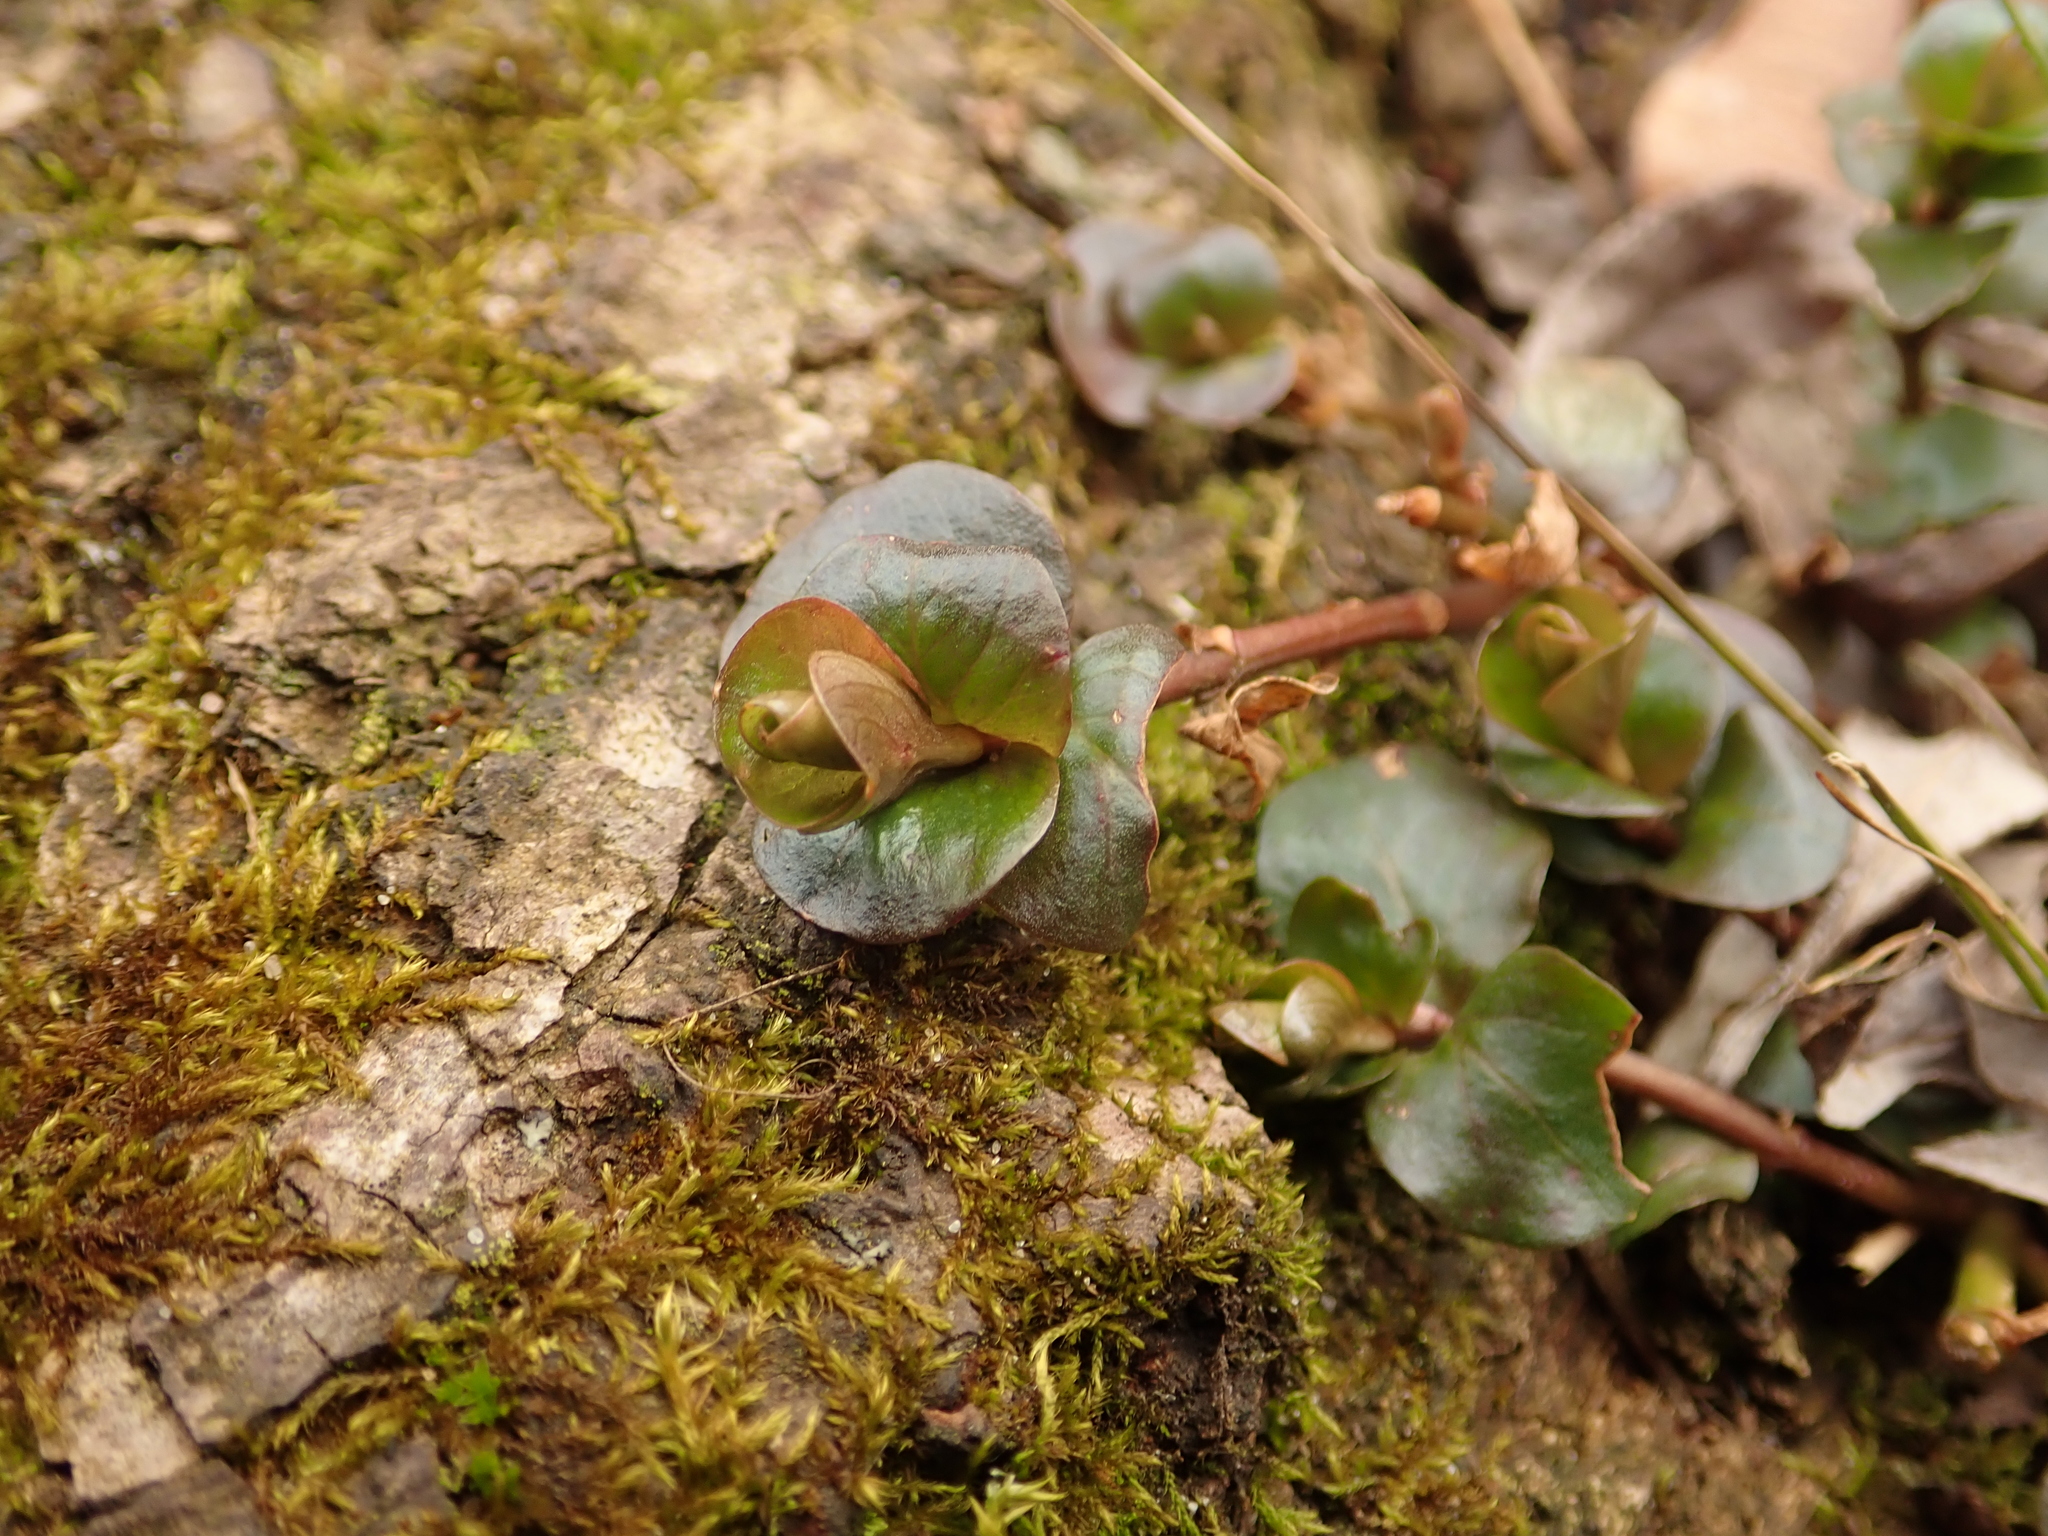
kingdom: Plantae
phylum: Tracheophyta
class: Magnoliopsida
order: Ericales
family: Primulaceae
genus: Lysimachia
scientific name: Lysimachia nummularia
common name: Moneywort
